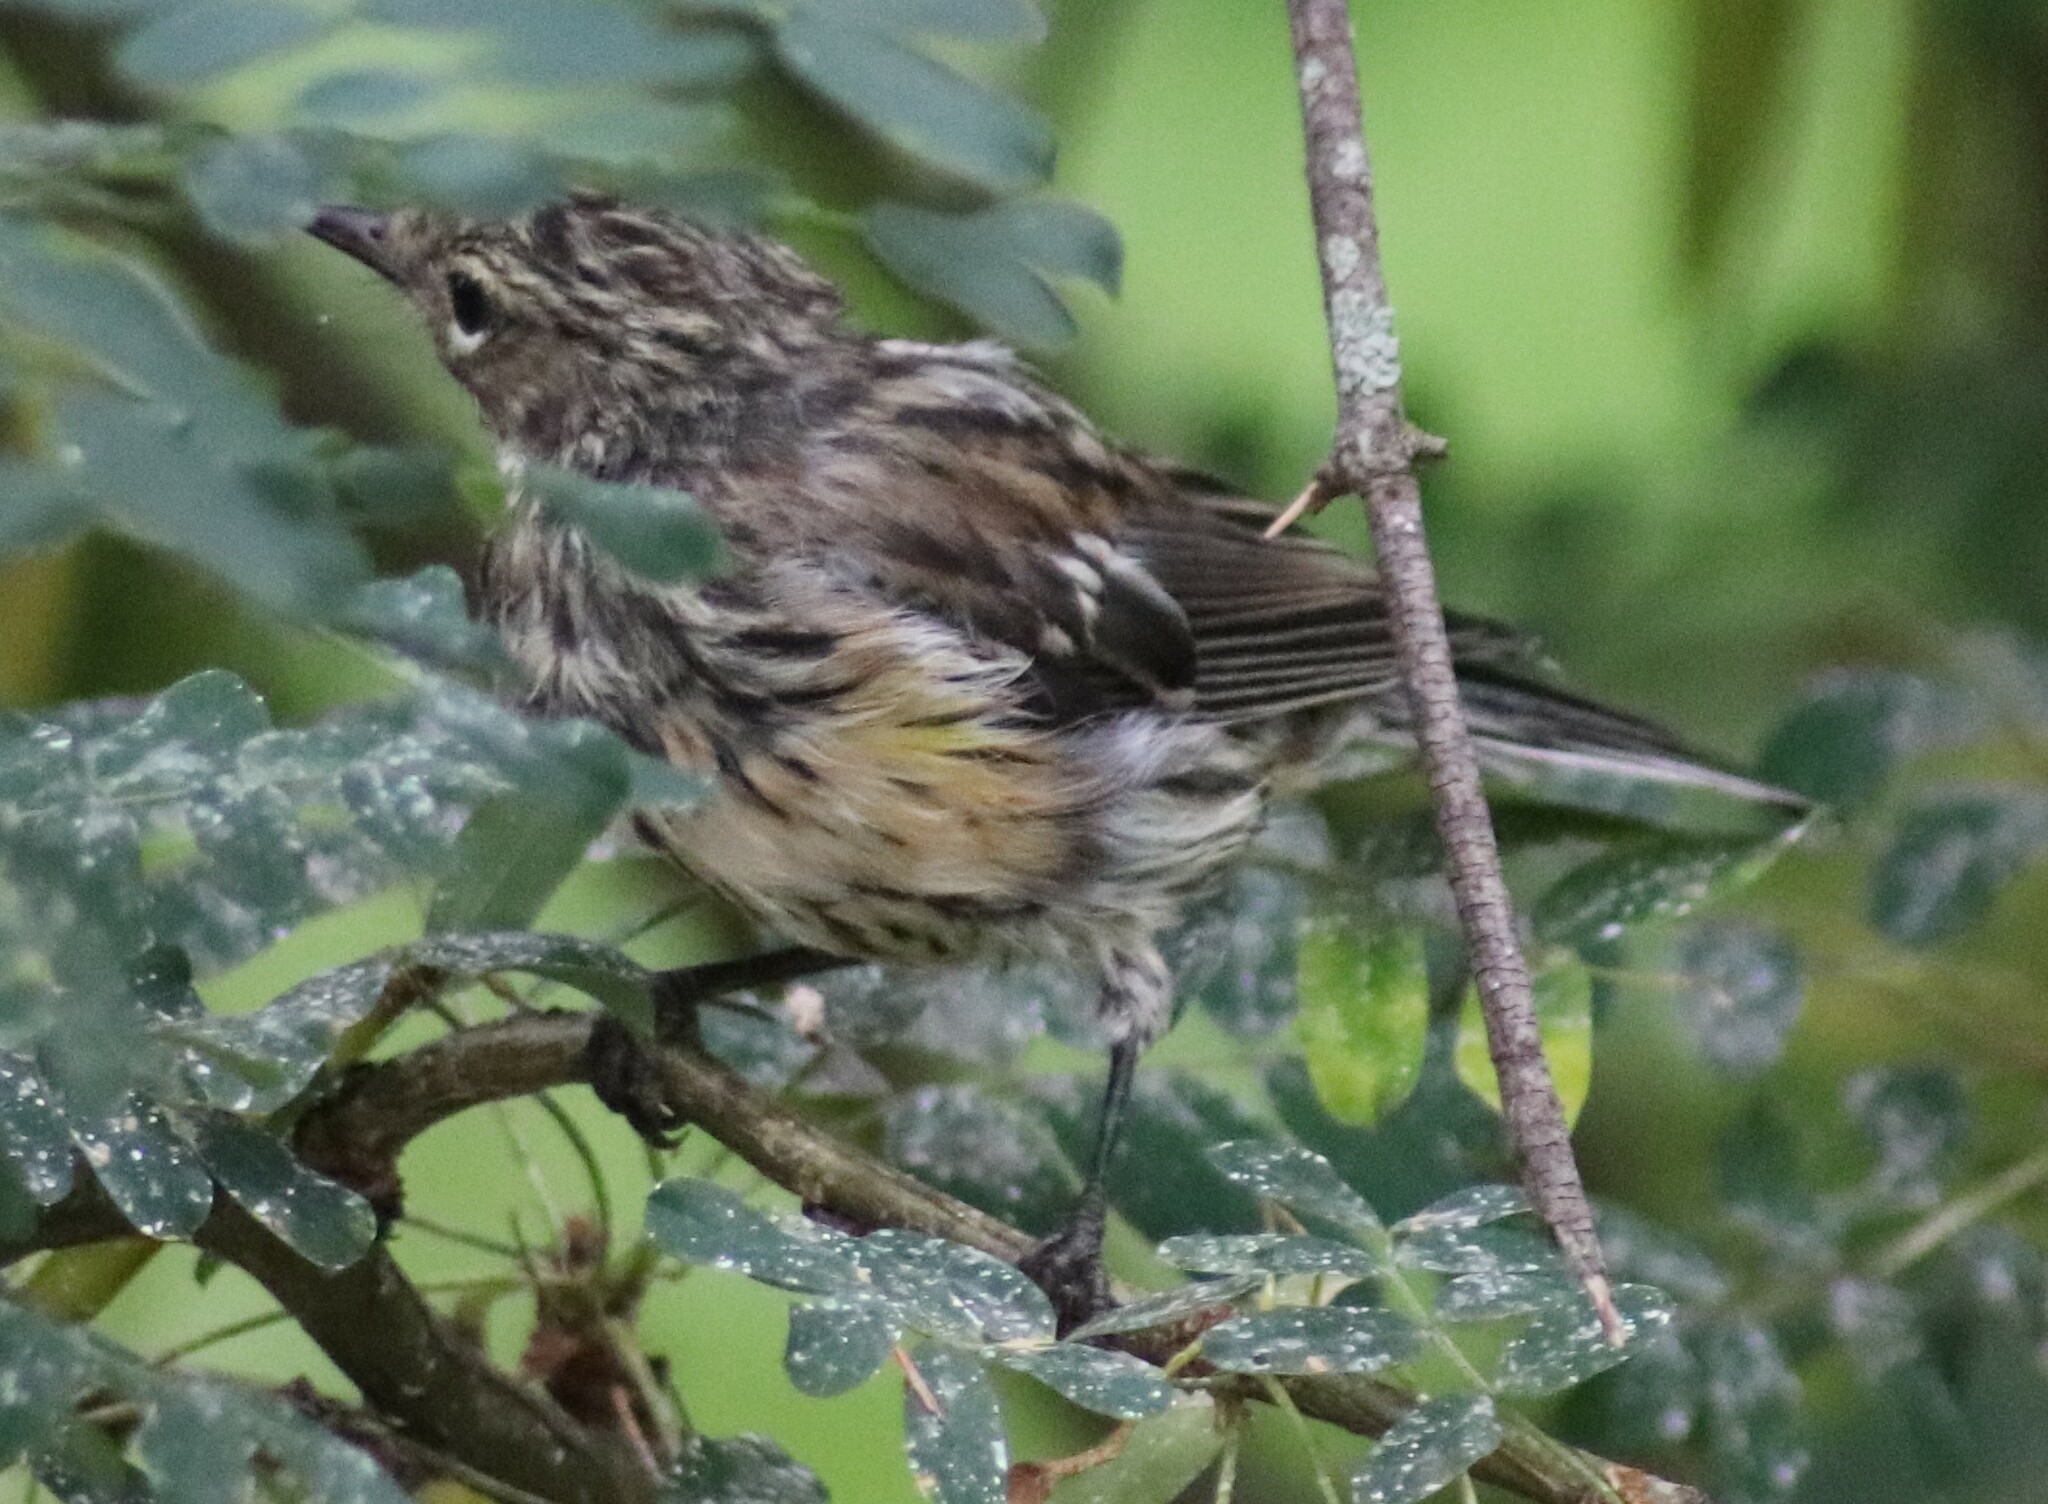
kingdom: Animalia
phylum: Chordata
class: Aves
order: Passeriformes
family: Parulidae
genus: Setophaga
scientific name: Setophaga coronata
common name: Myrtle warbler
